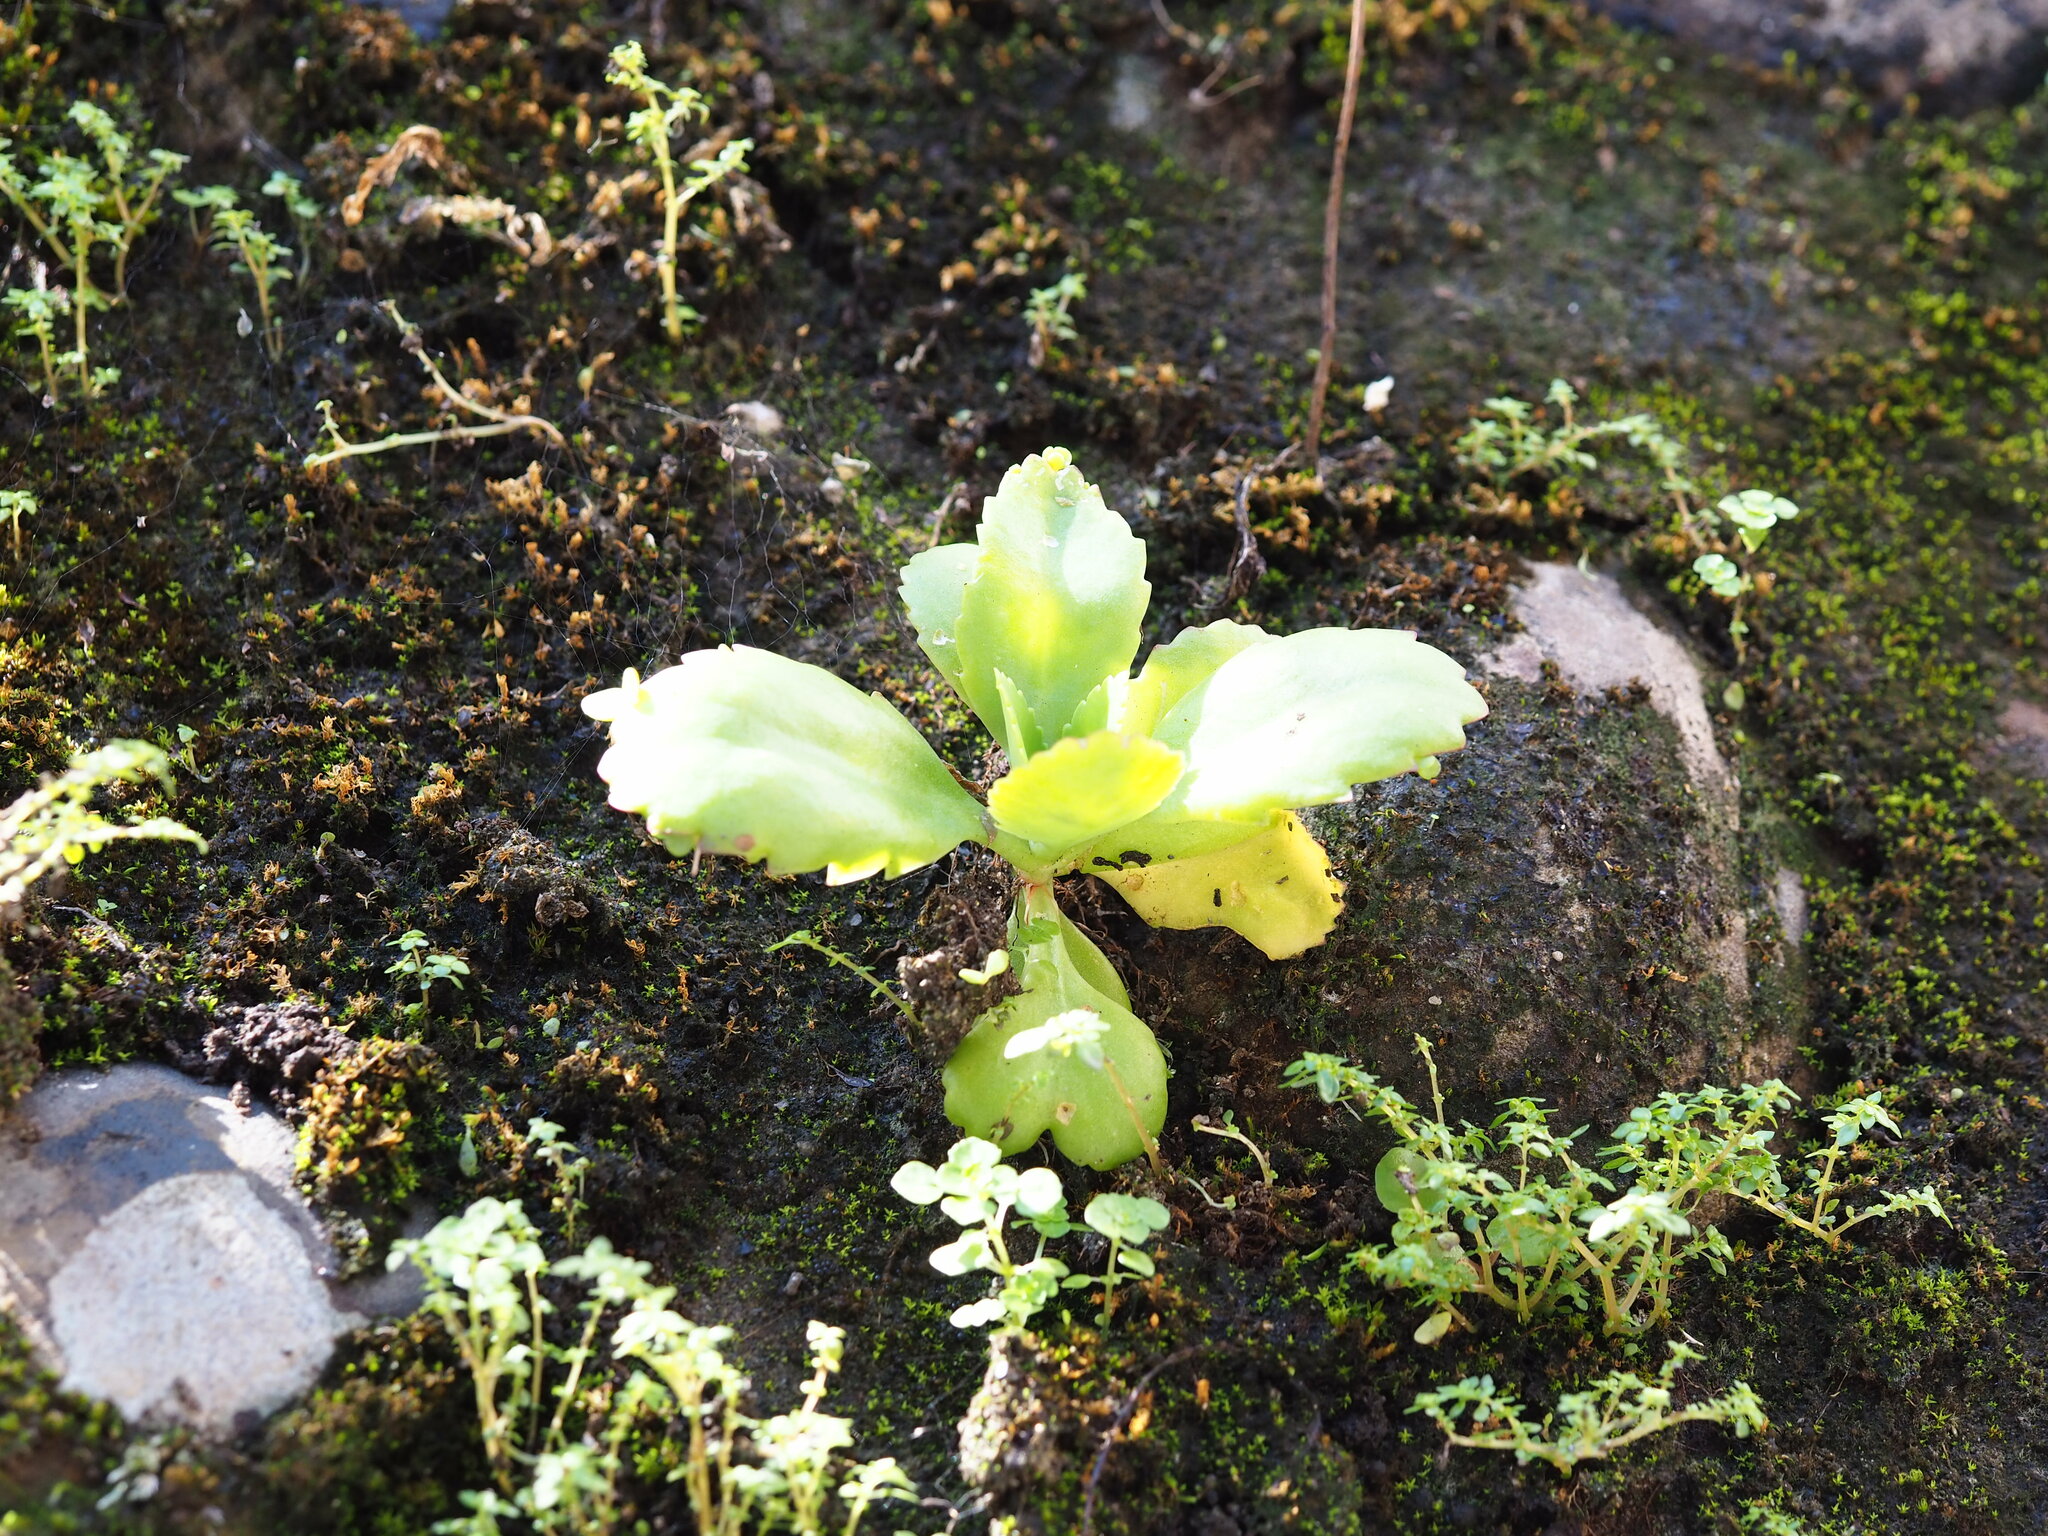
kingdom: Plantae
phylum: Tracheophyta
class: Magnoliopsida
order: Saxifragales
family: Crassulaceae
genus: Kalanchoe
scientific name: Kalanchoe pinnata
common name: Cathedral bells
